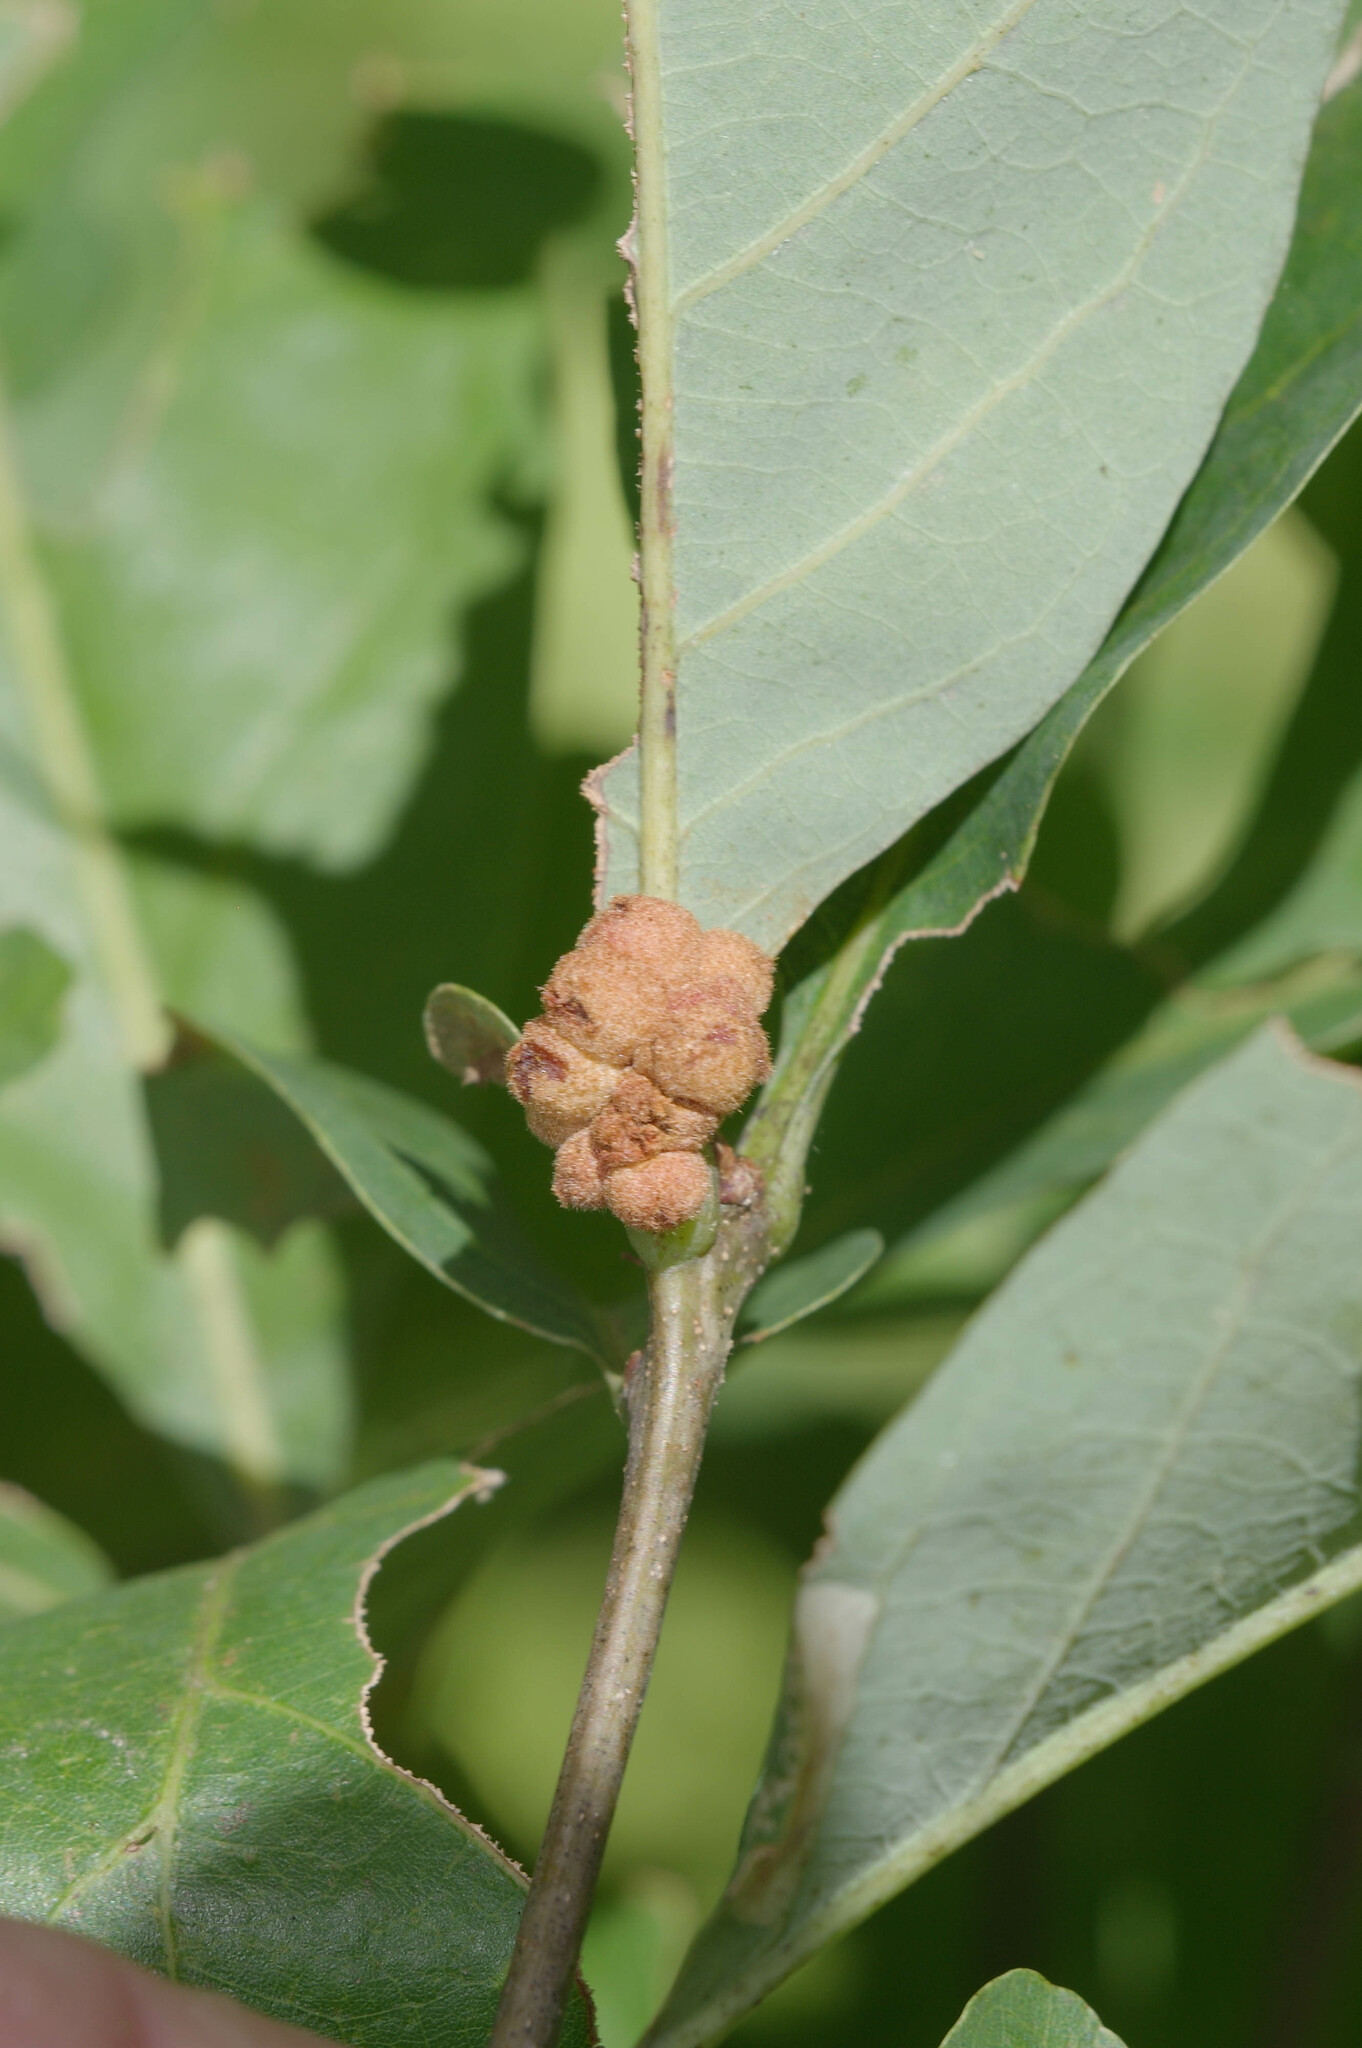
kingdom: Animalia
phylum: Arthropoda
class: Insecta
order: Hymenoptera
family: Cynipidae
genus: Andricus
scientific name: Andricus
